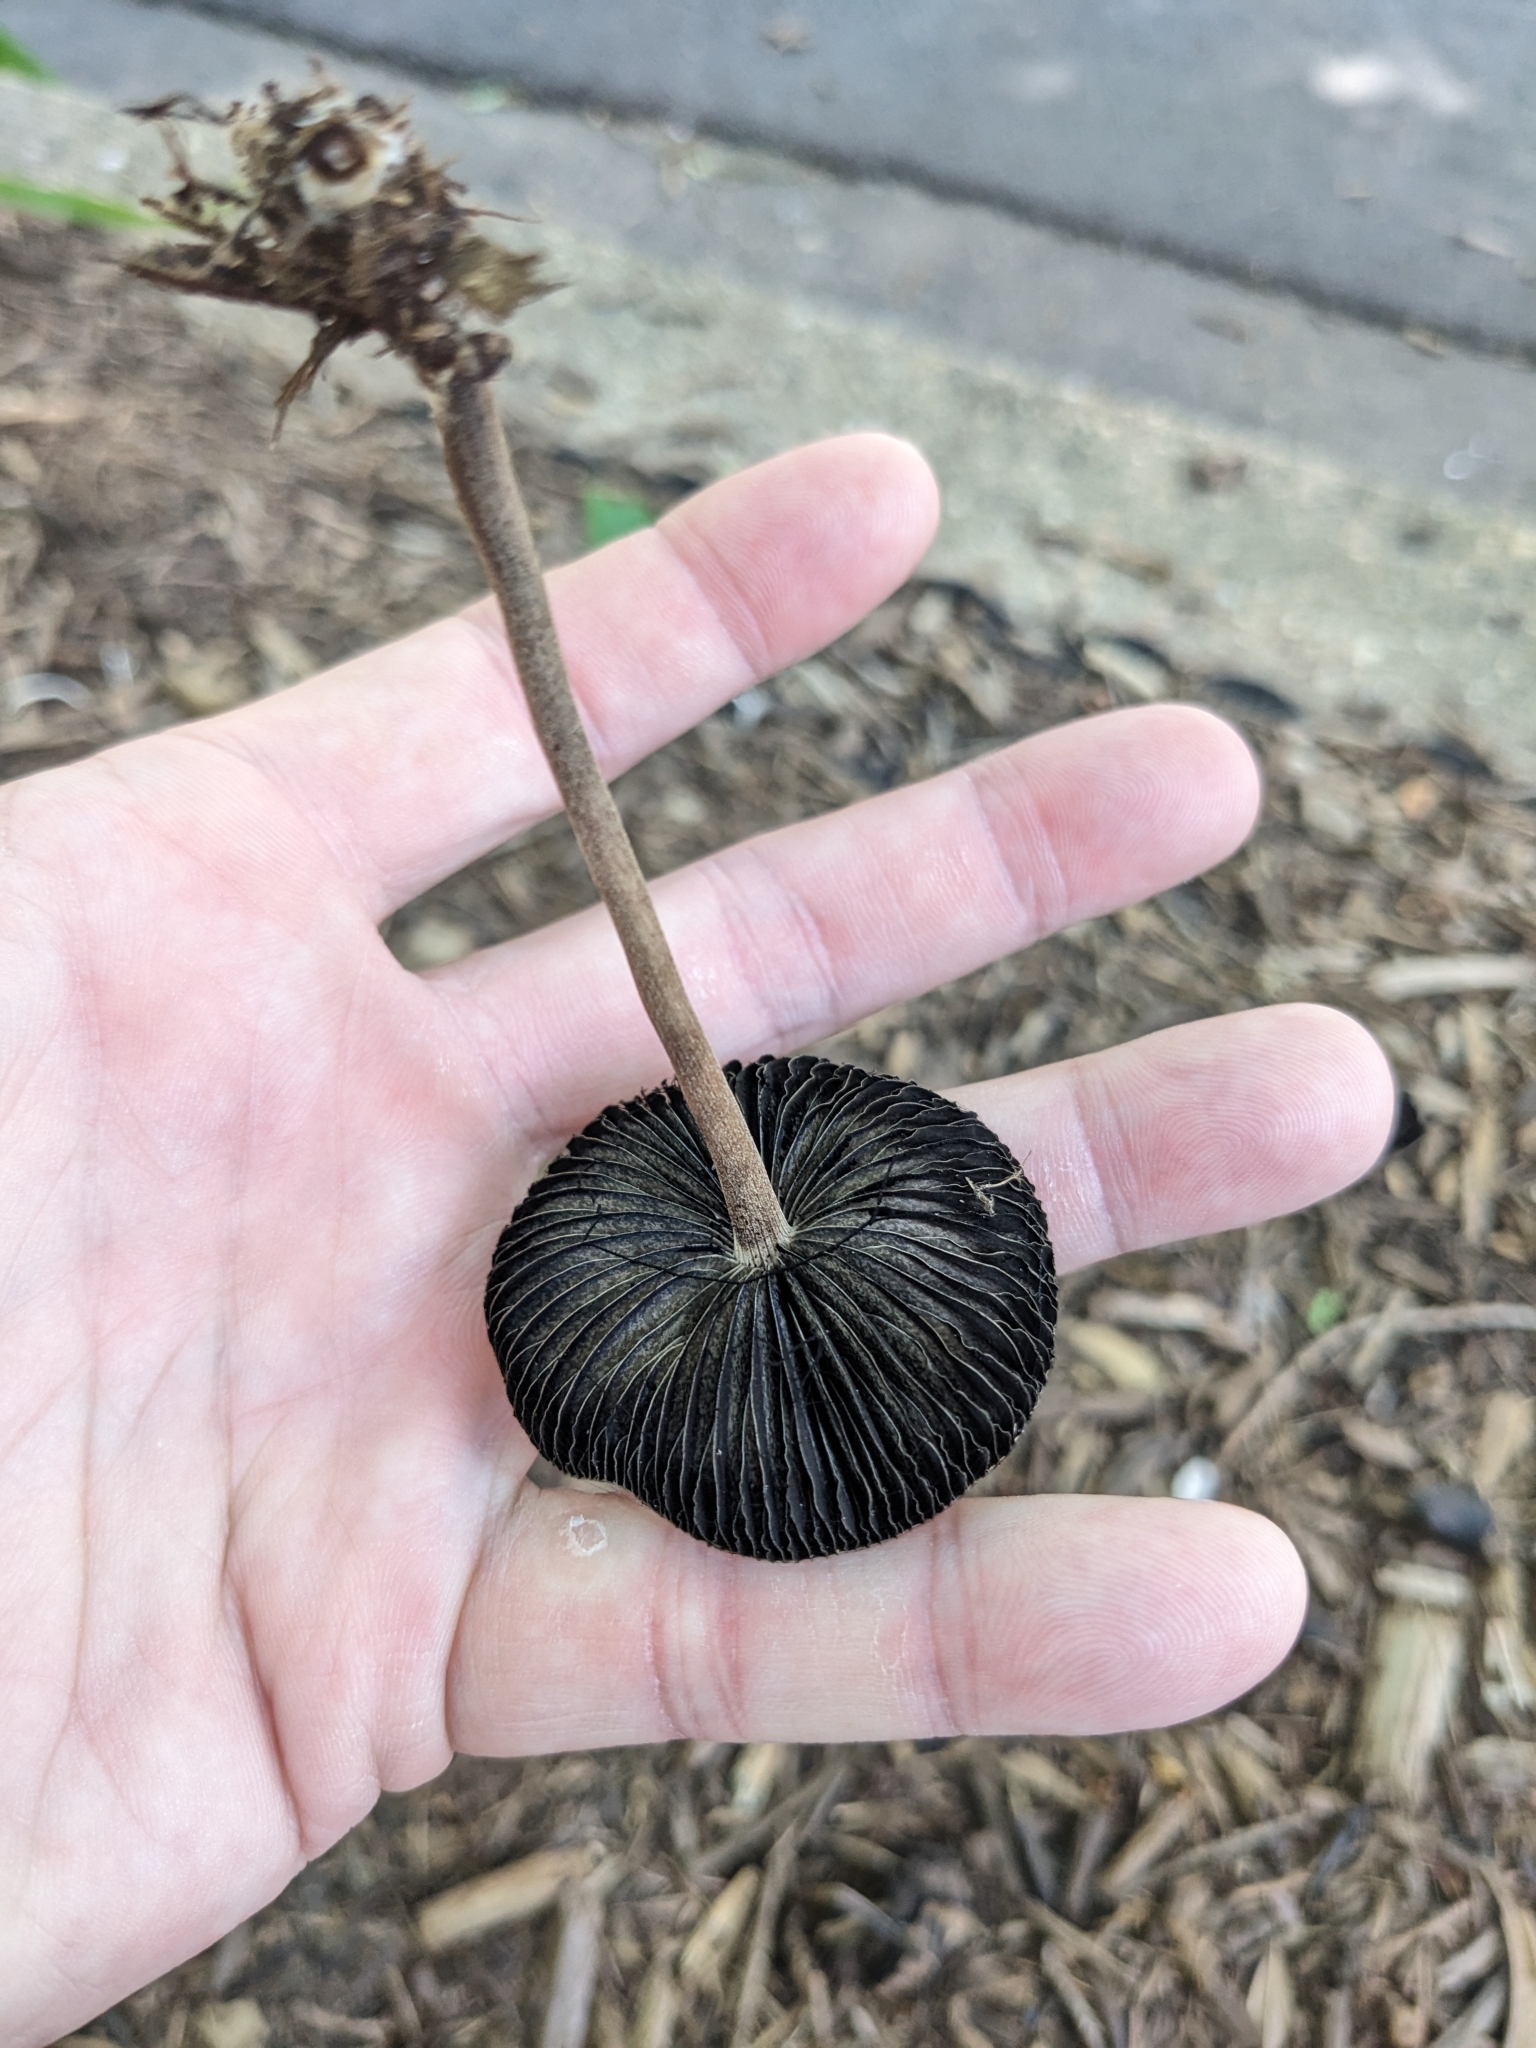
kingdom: Fungi
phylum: Basidiomycota
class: Agaricomycetes
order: Agaricales
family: Bolbitiaceae
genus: Panaeolus
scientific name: Panaeolus cinctulus
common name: Banded mottlegill
